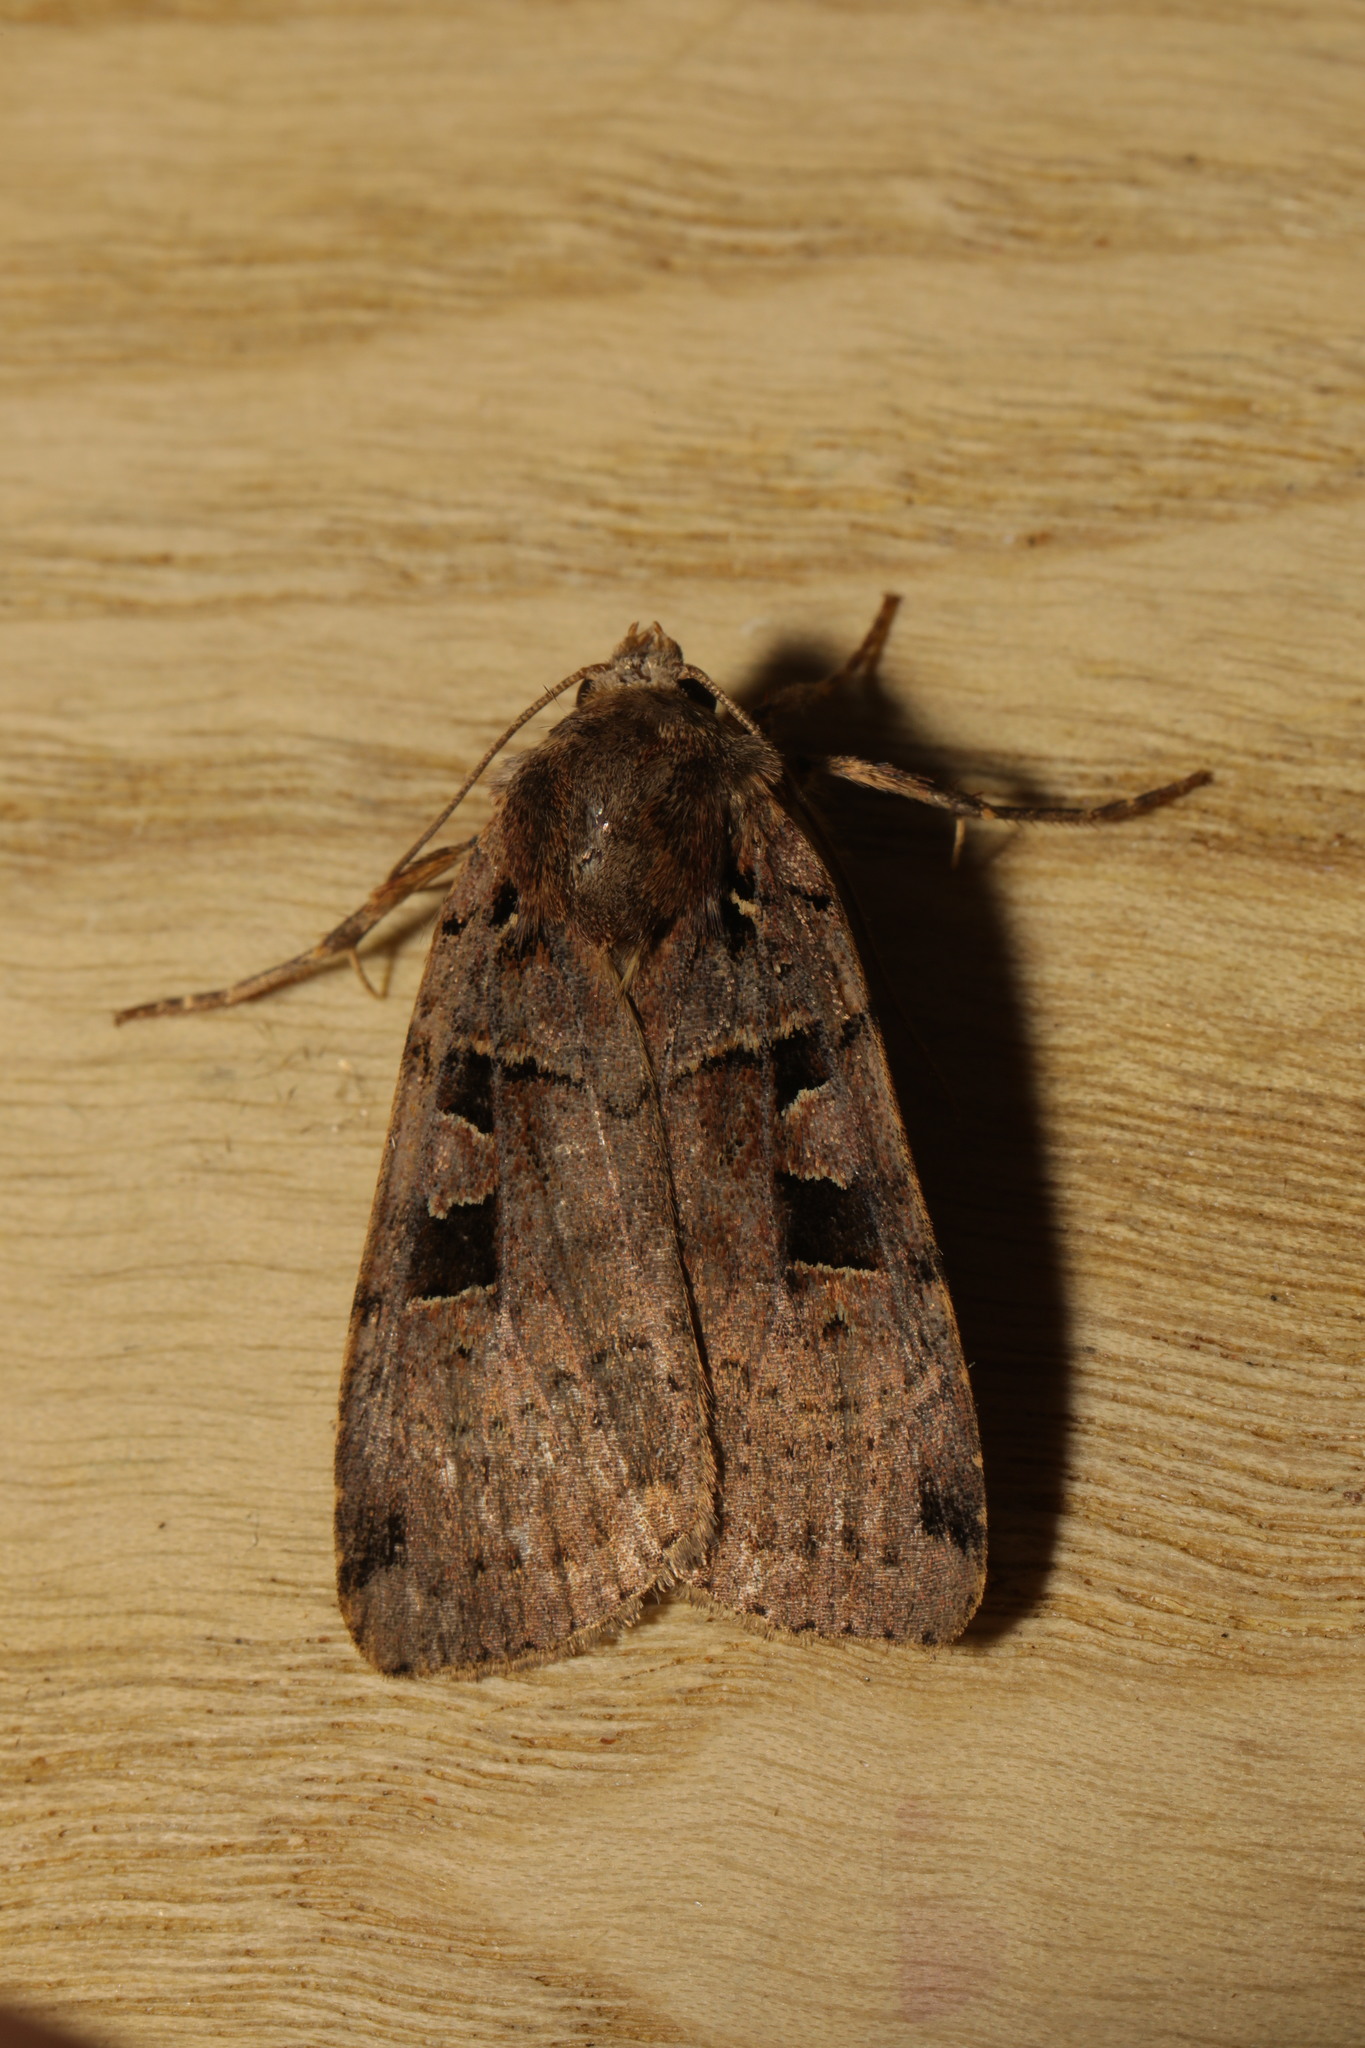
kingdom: Animalia
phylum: Arthropoda
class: Insecta
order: Lepidoptera
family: Noctuidae
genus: Xestia
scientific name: Xestia triangulum
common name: Double square-spot
